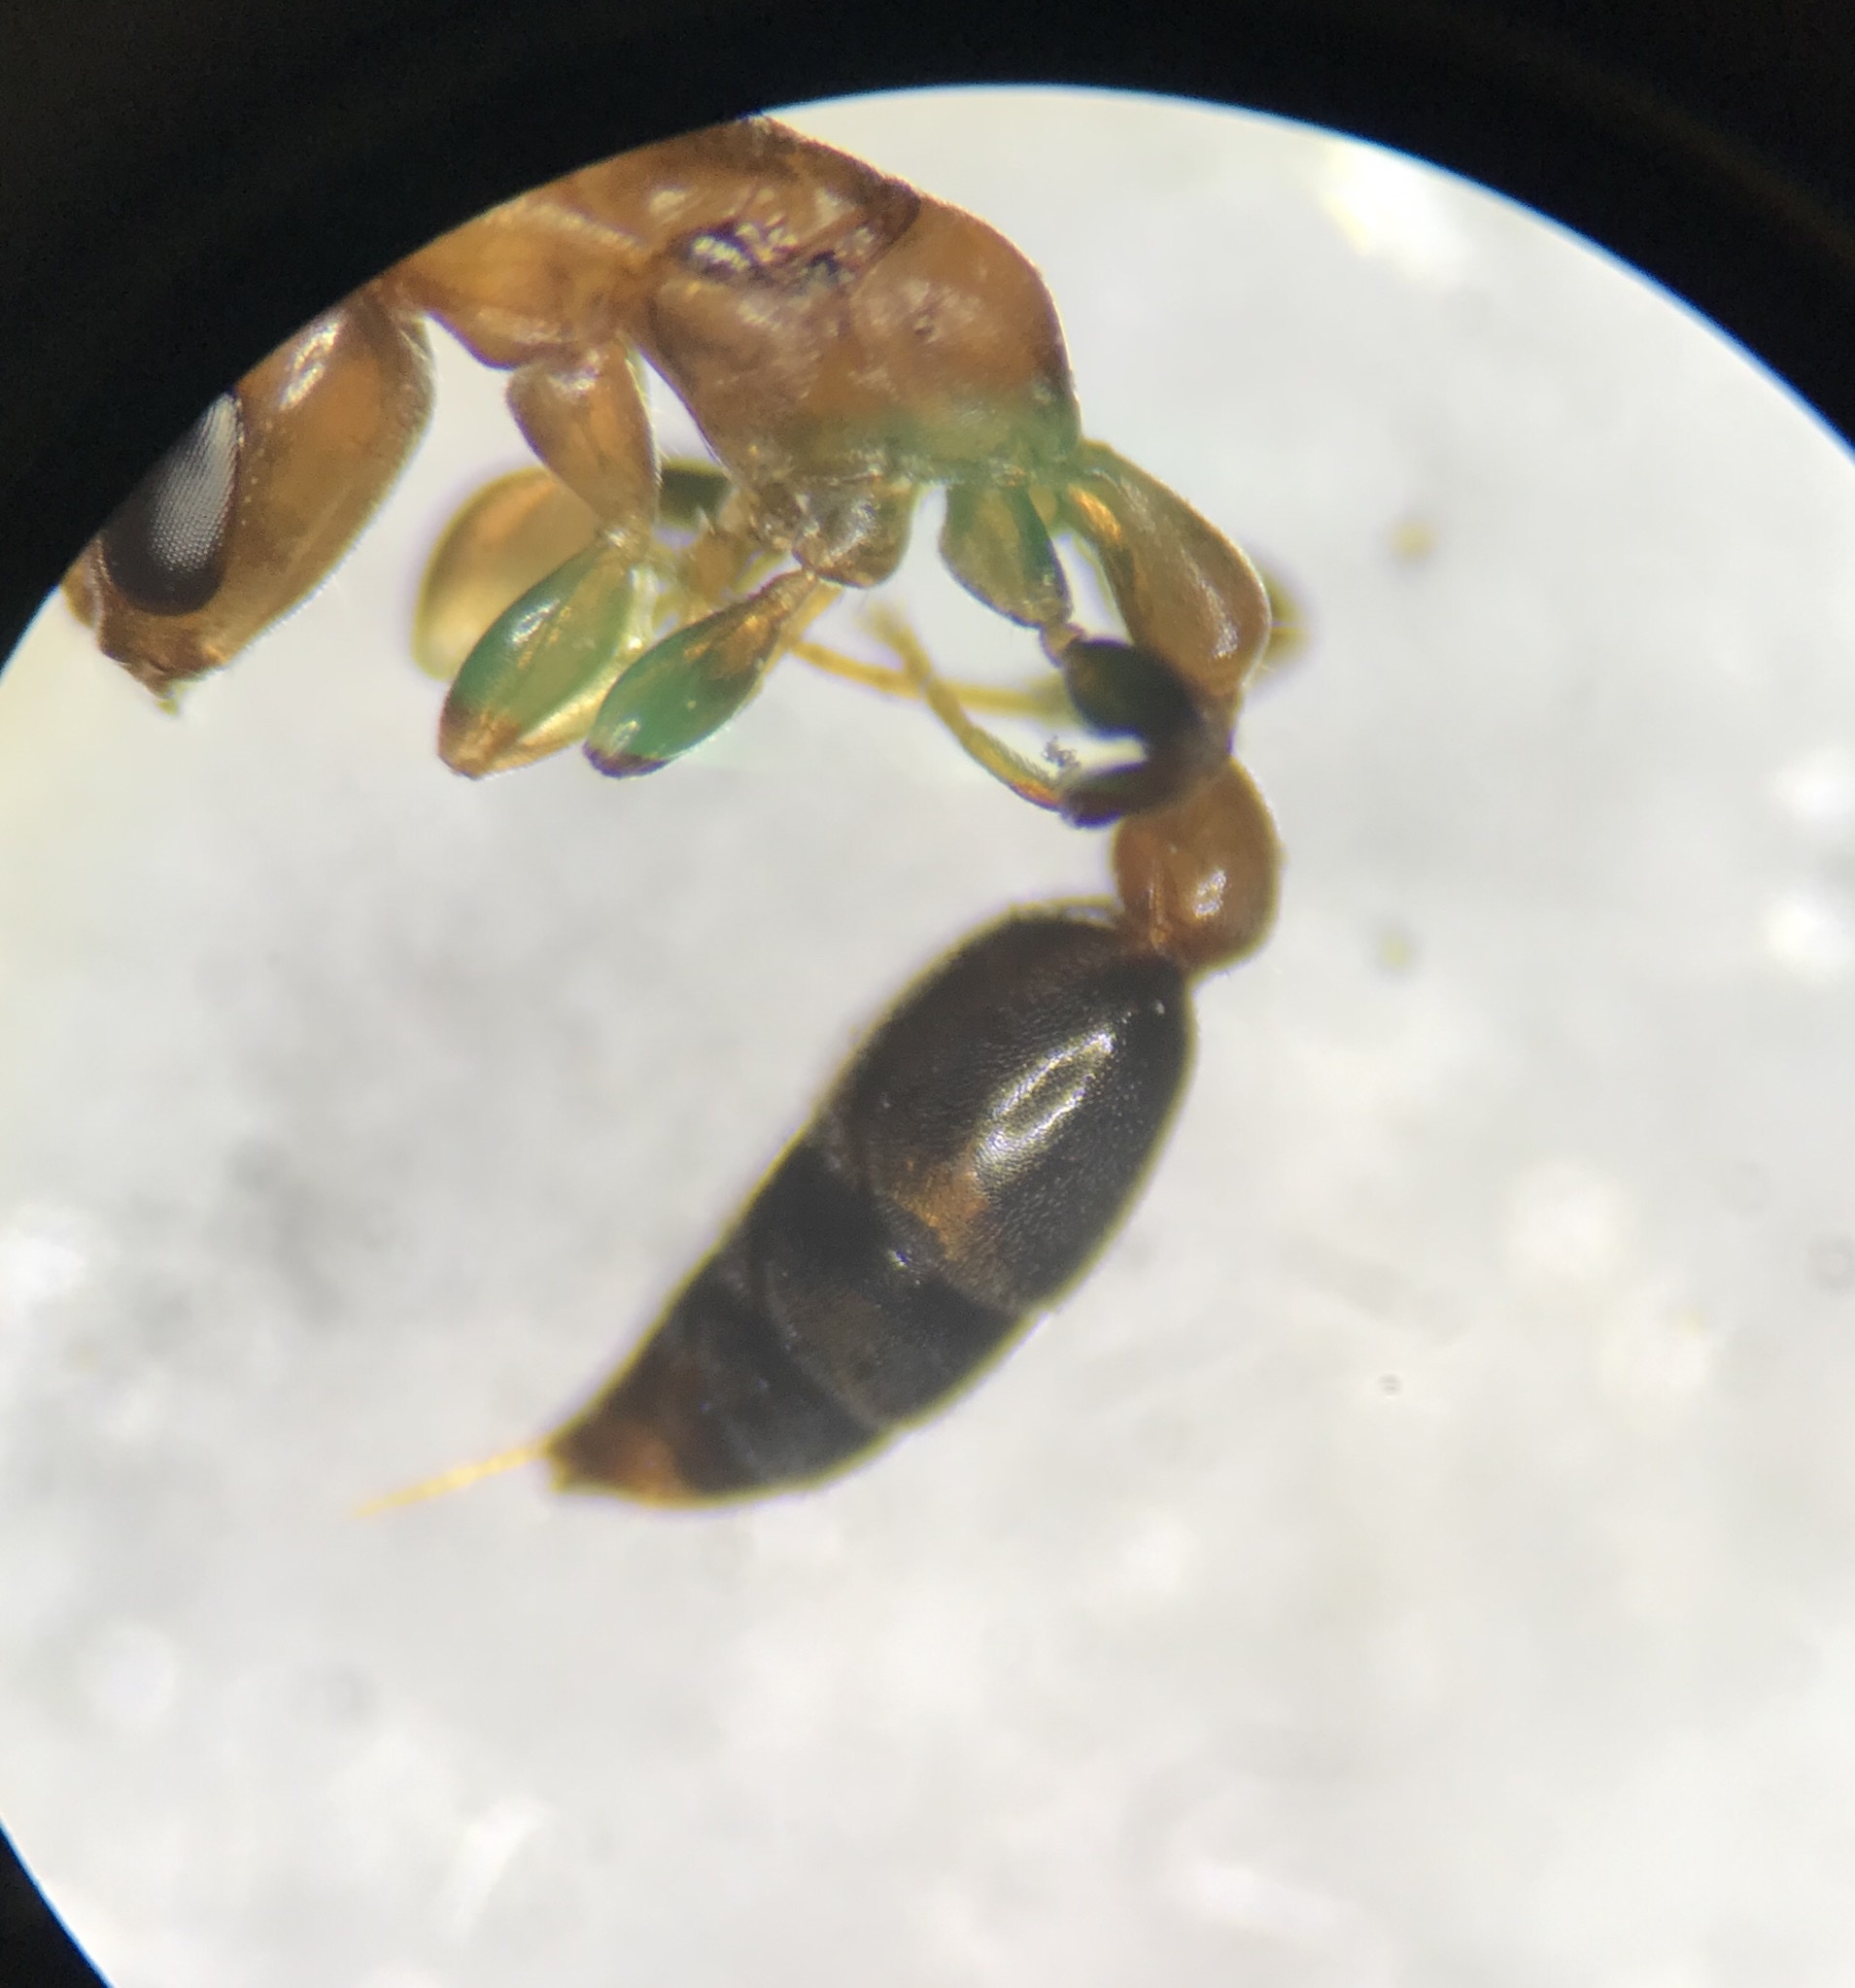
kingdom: Animalia
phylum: Arthropoda
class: Insecta
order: Hymenoptera
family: Formicidae
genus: Pseudomyrmex
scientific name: Pseudomyrmex ejectus
